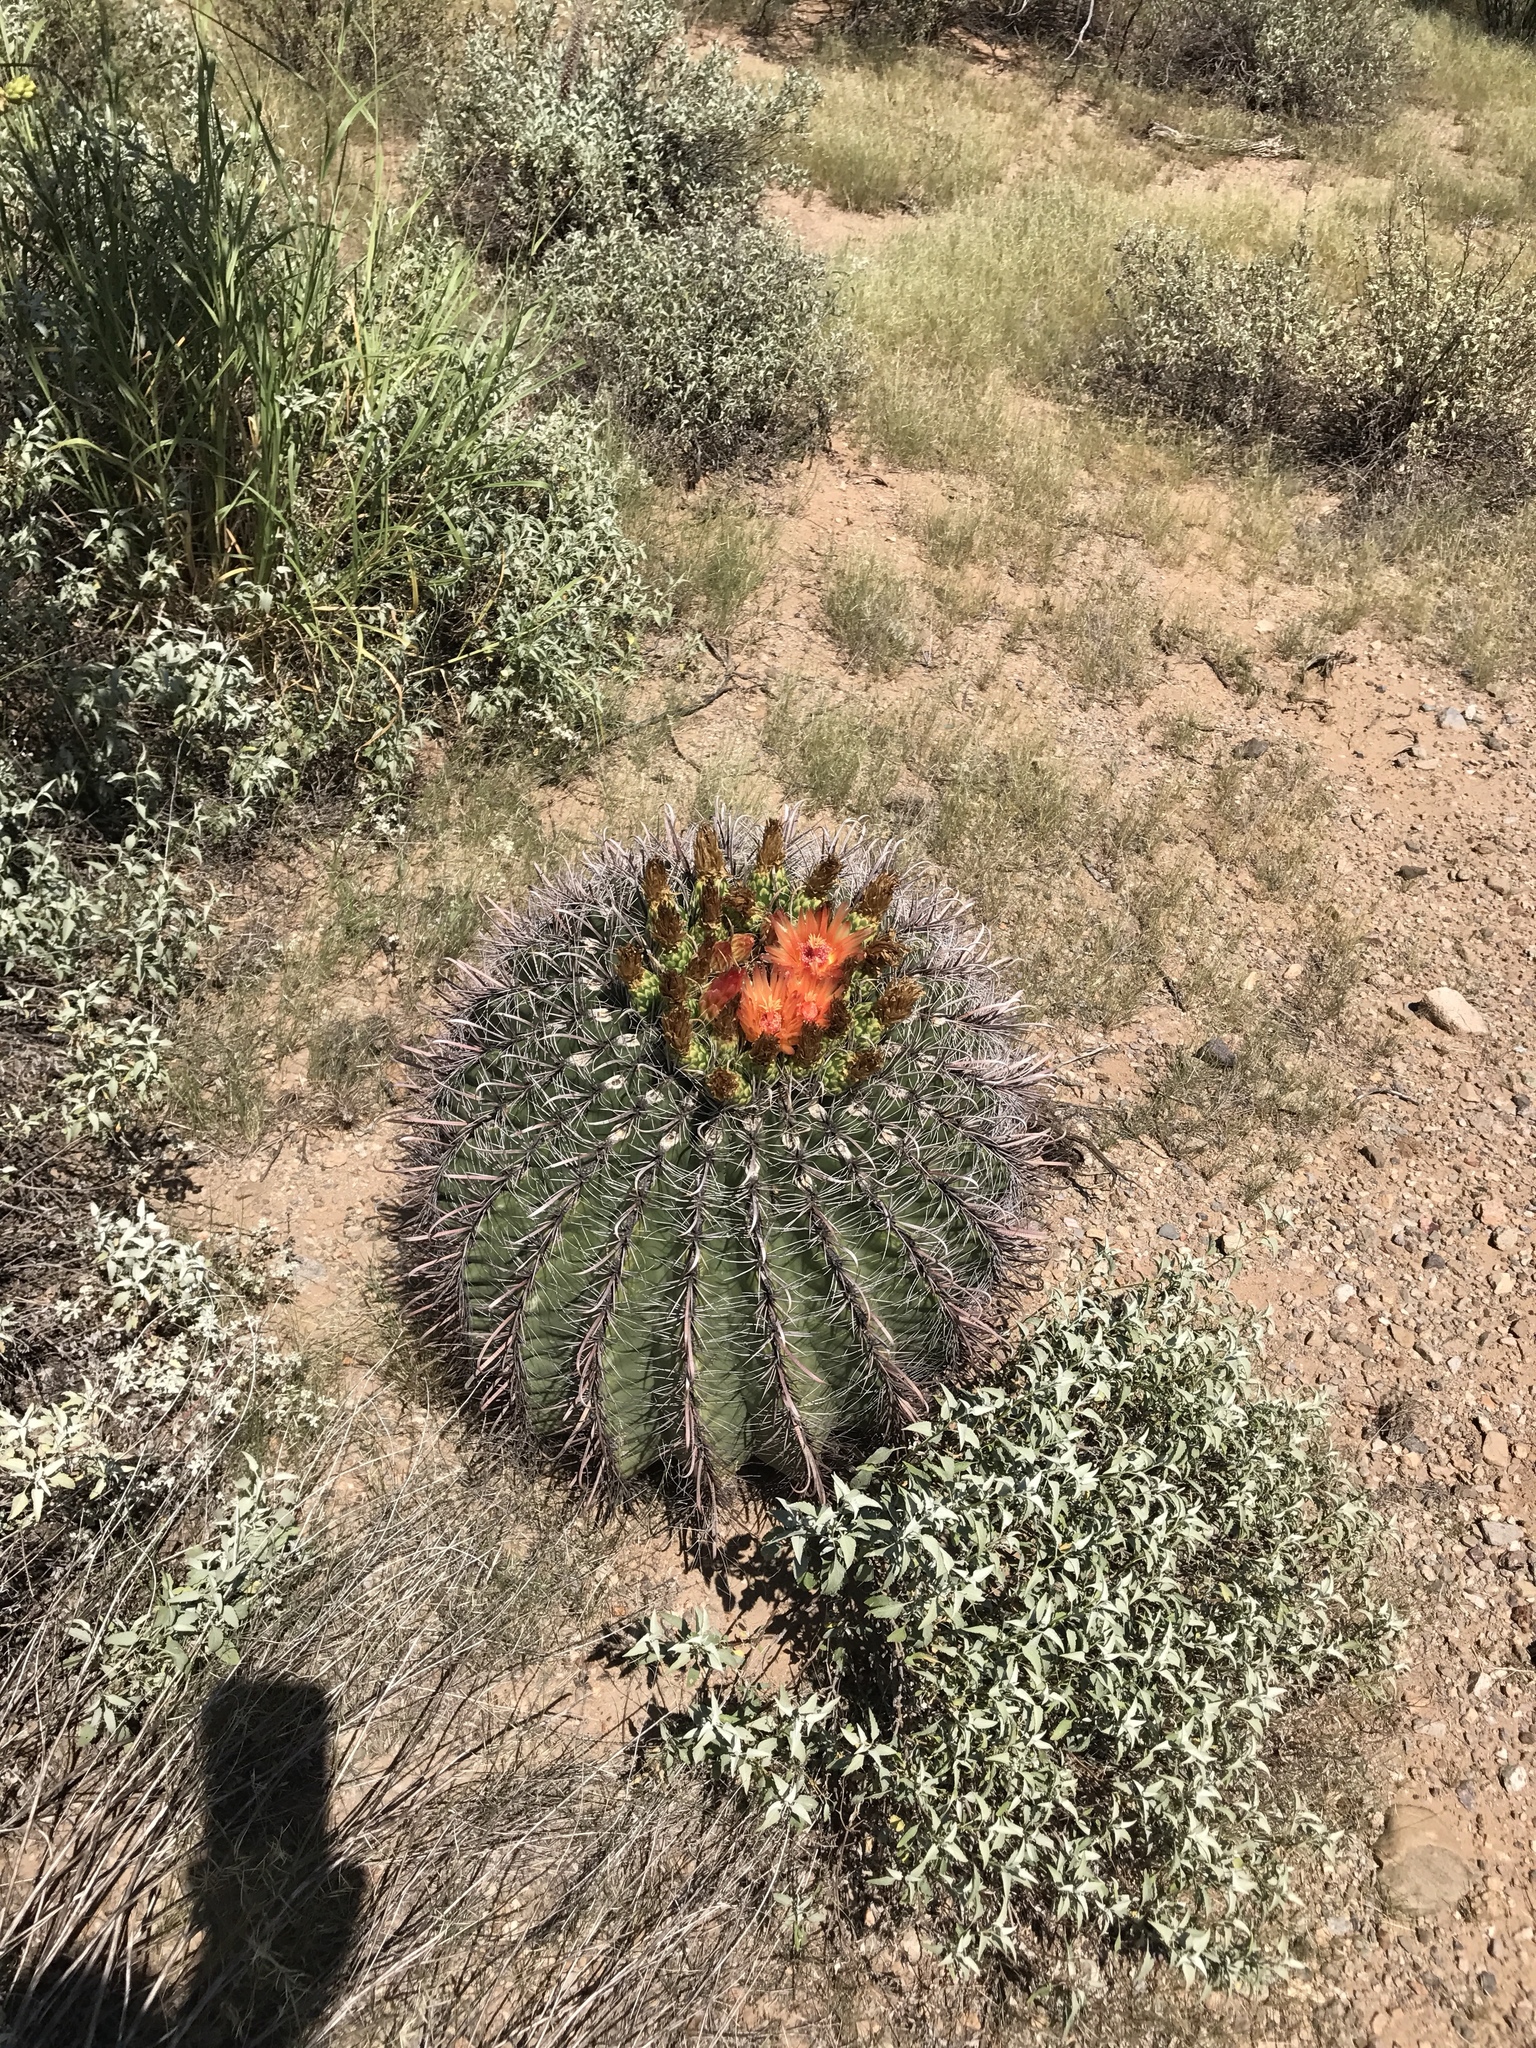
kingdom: Plantae
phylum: Tracheophyta
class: Magnoliopsida
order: Caryophyllales
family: Cactaceae
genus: Ferocactus
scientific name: Ferocactus wislizeni
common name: Candy barrel cactus
